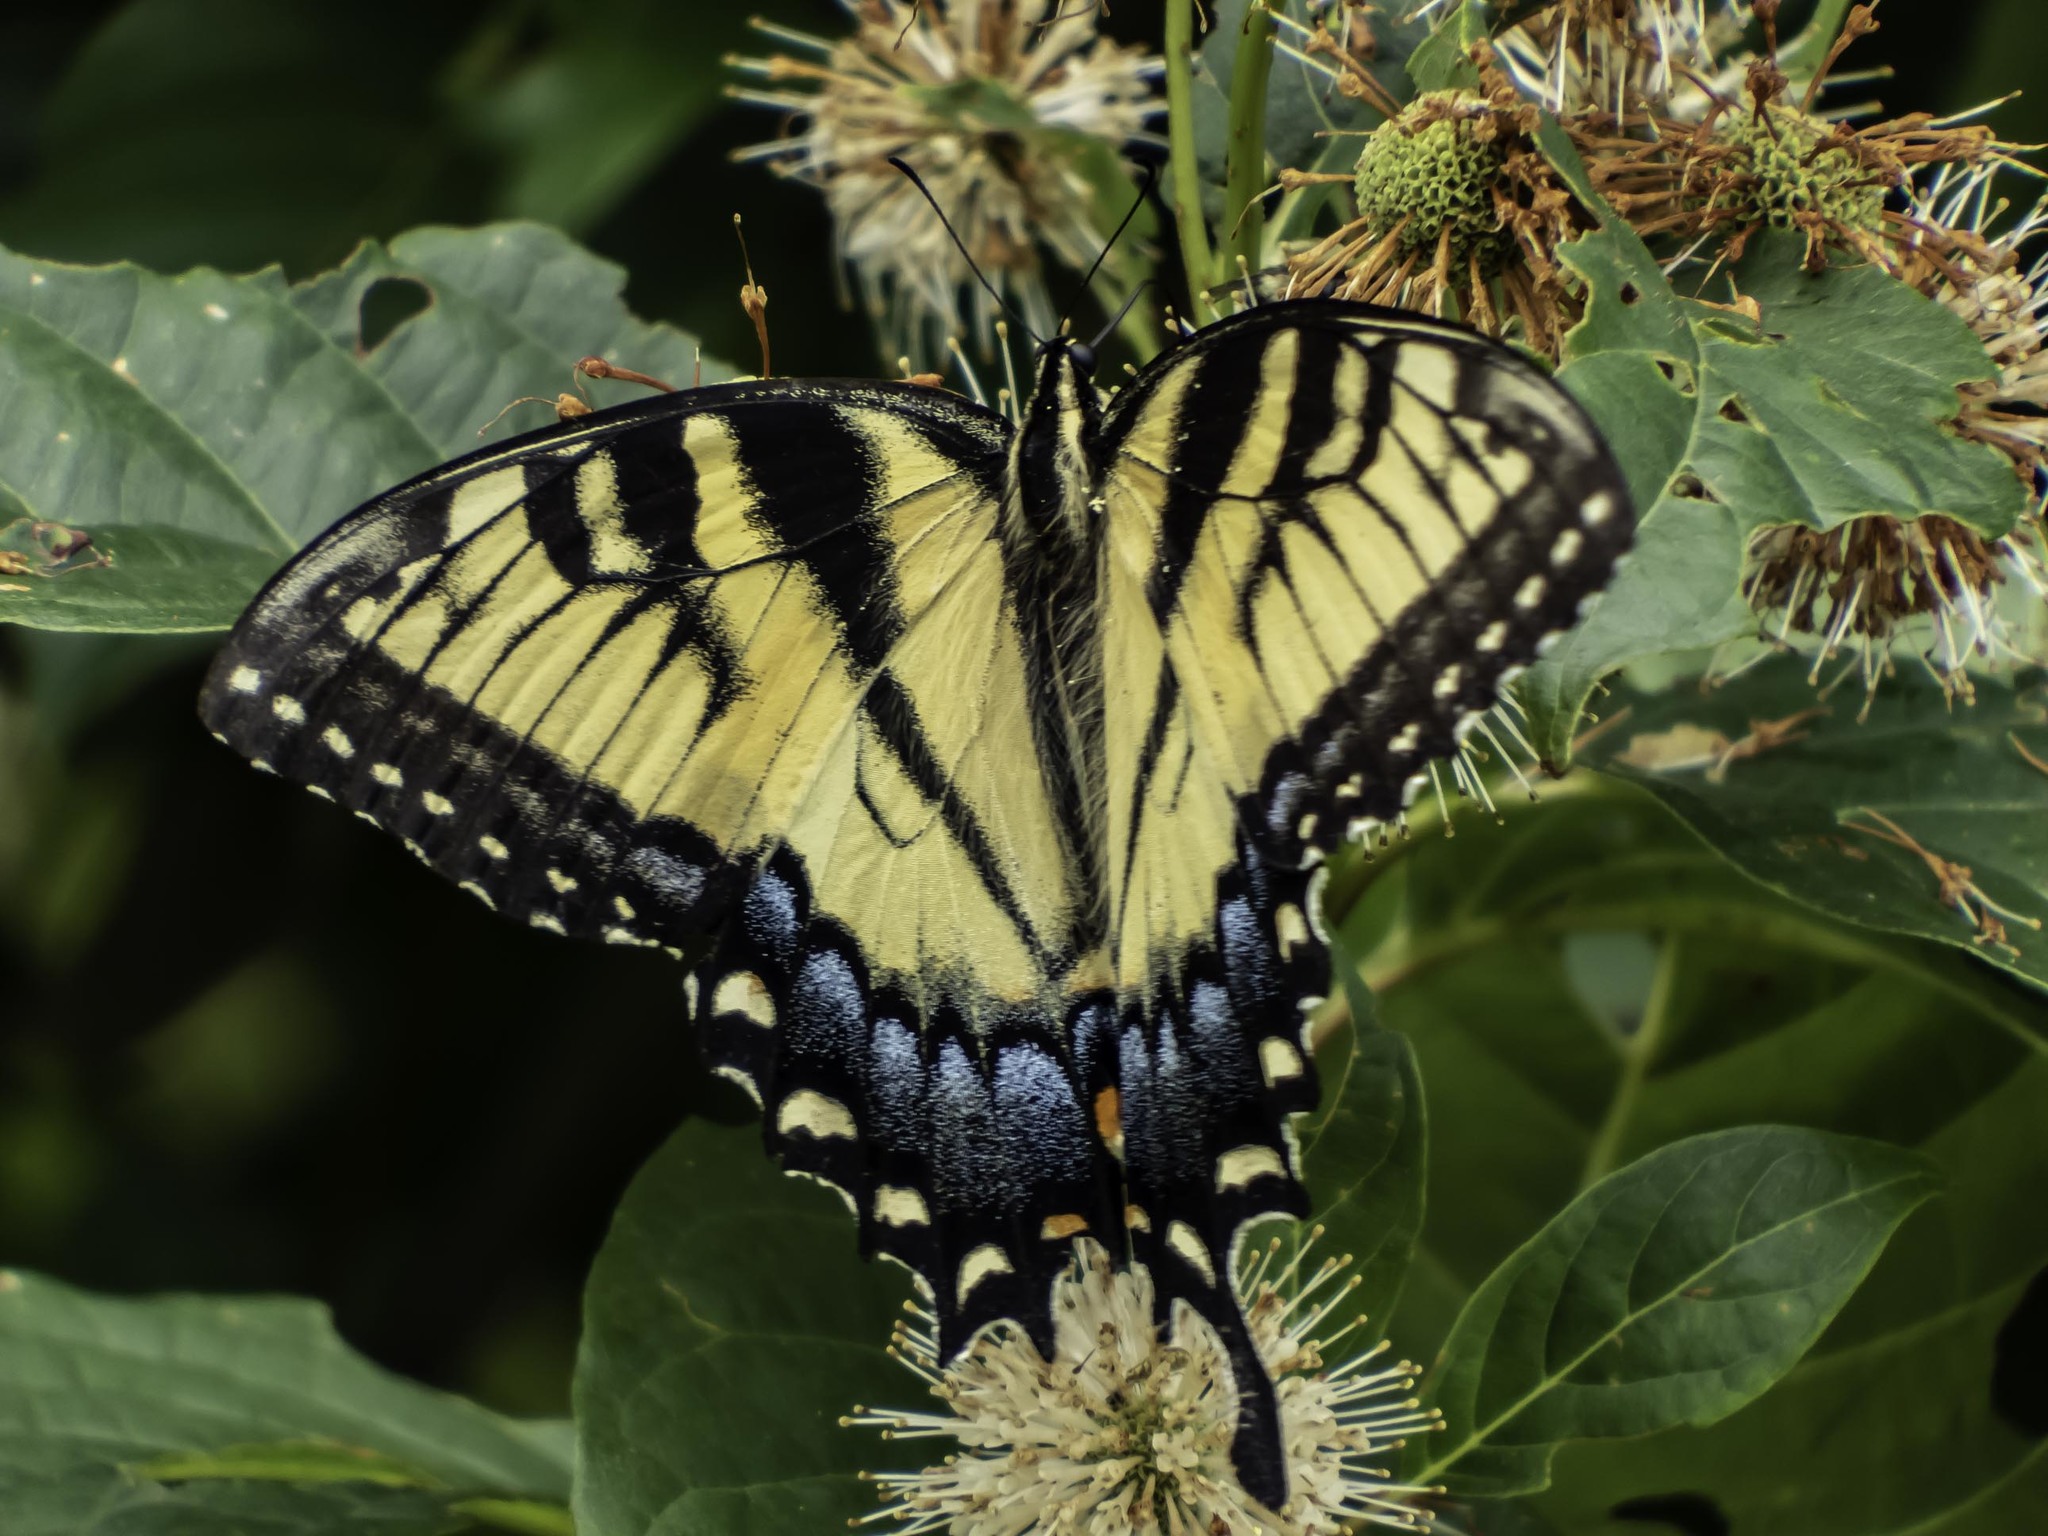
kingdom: Animalia
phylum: Arthropoda
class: Insecta
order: Lepidoptera
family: Papilionidae
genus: Papilio
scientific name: Papilio glaucus
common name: Tiger swallowtail
